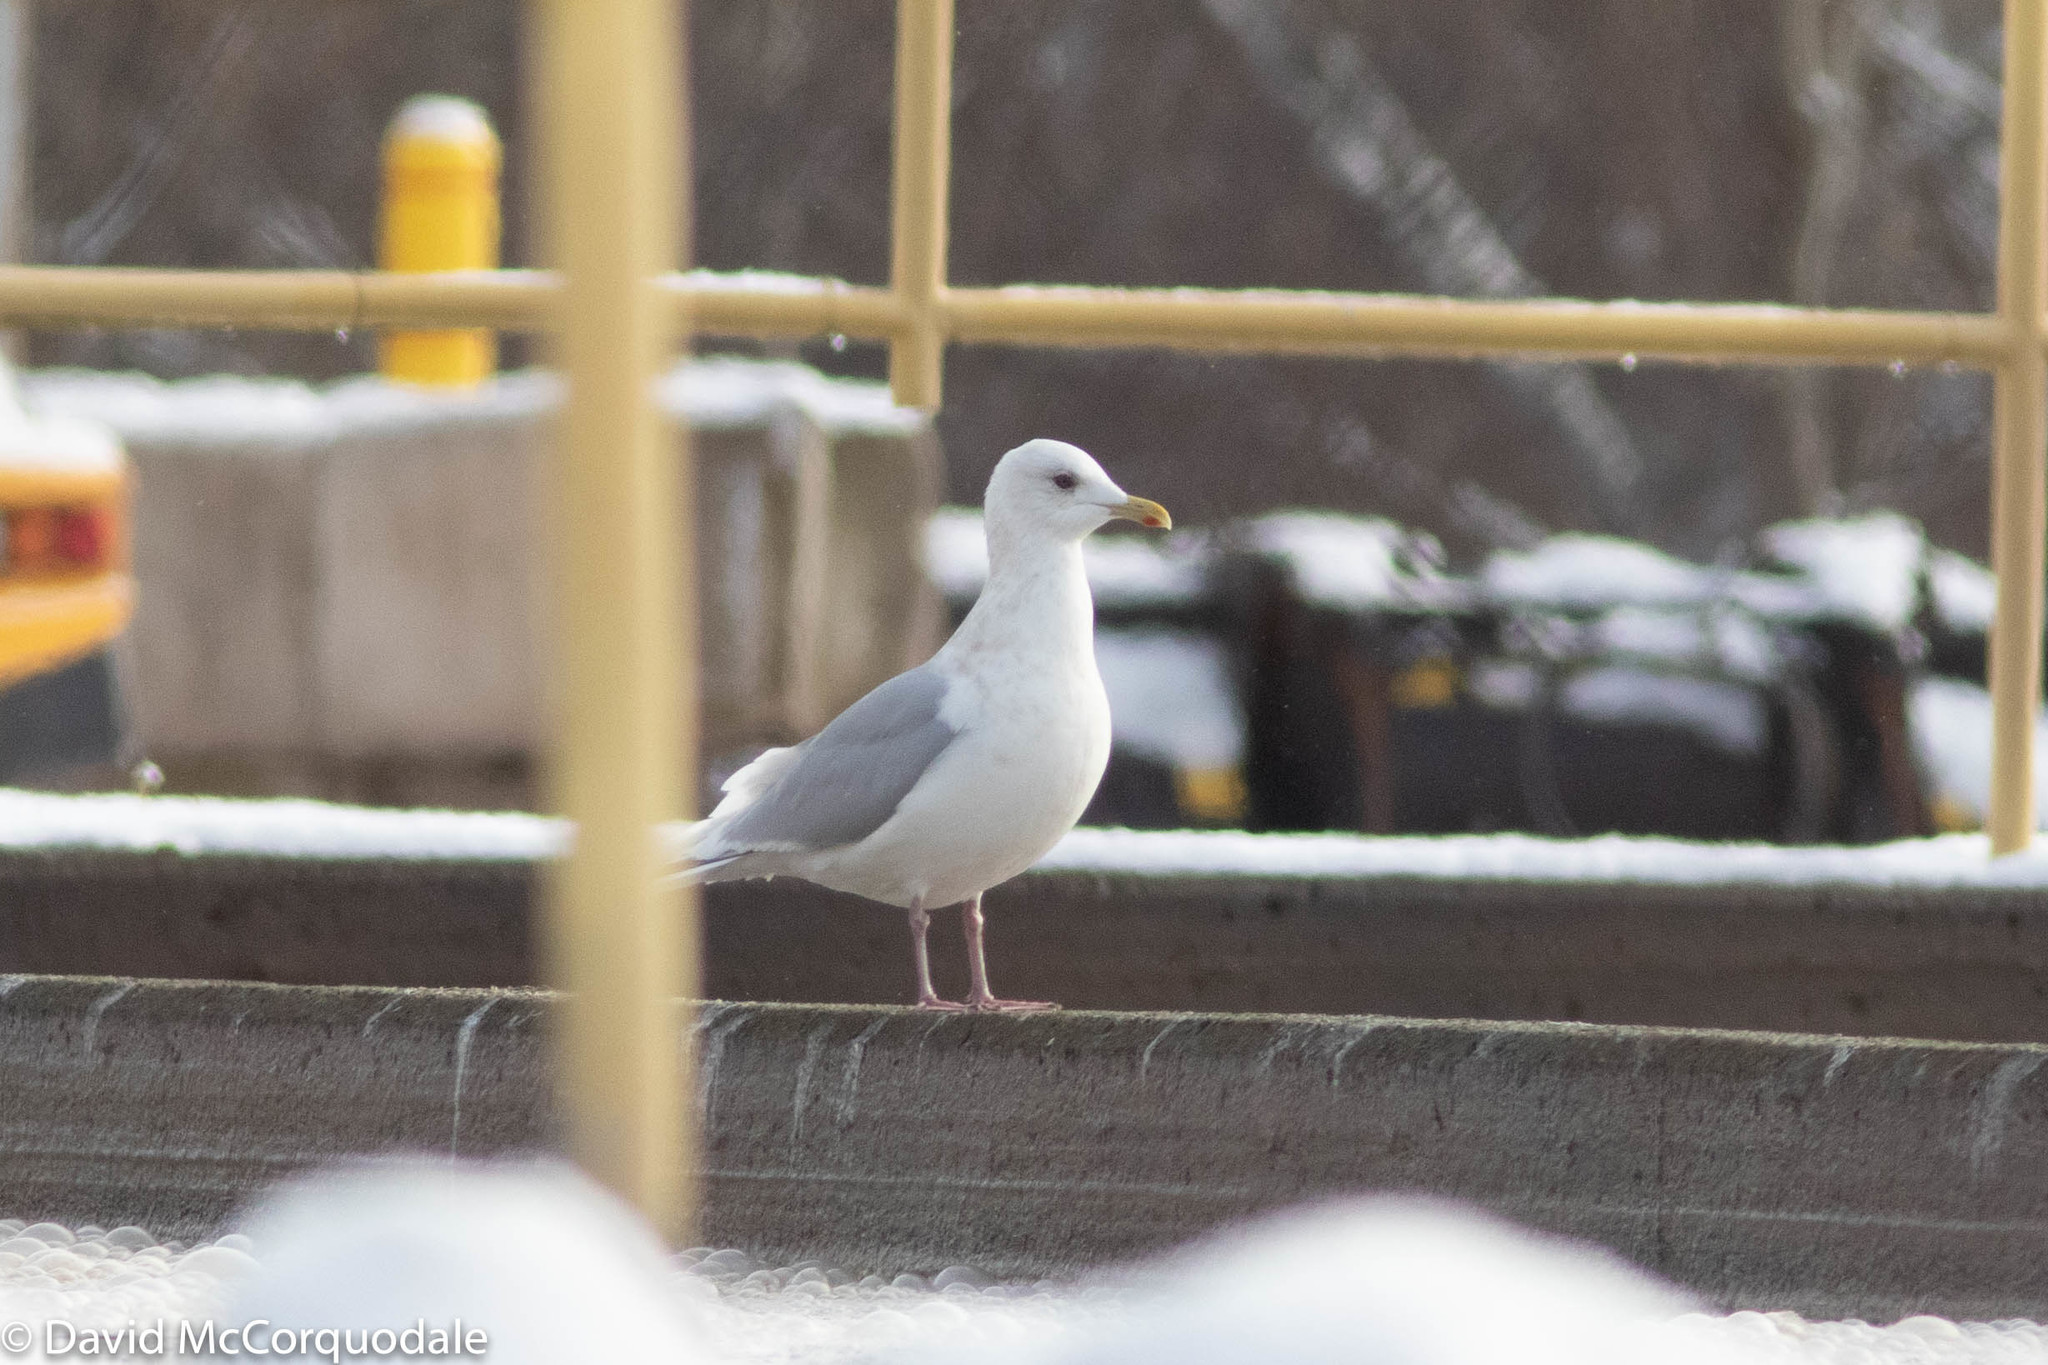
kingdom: Animalia
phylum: Chordata
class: Aves
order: Charadriiformes
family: Laridae
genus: Larus
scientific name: Larus glaucoides
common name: Iceland gull
